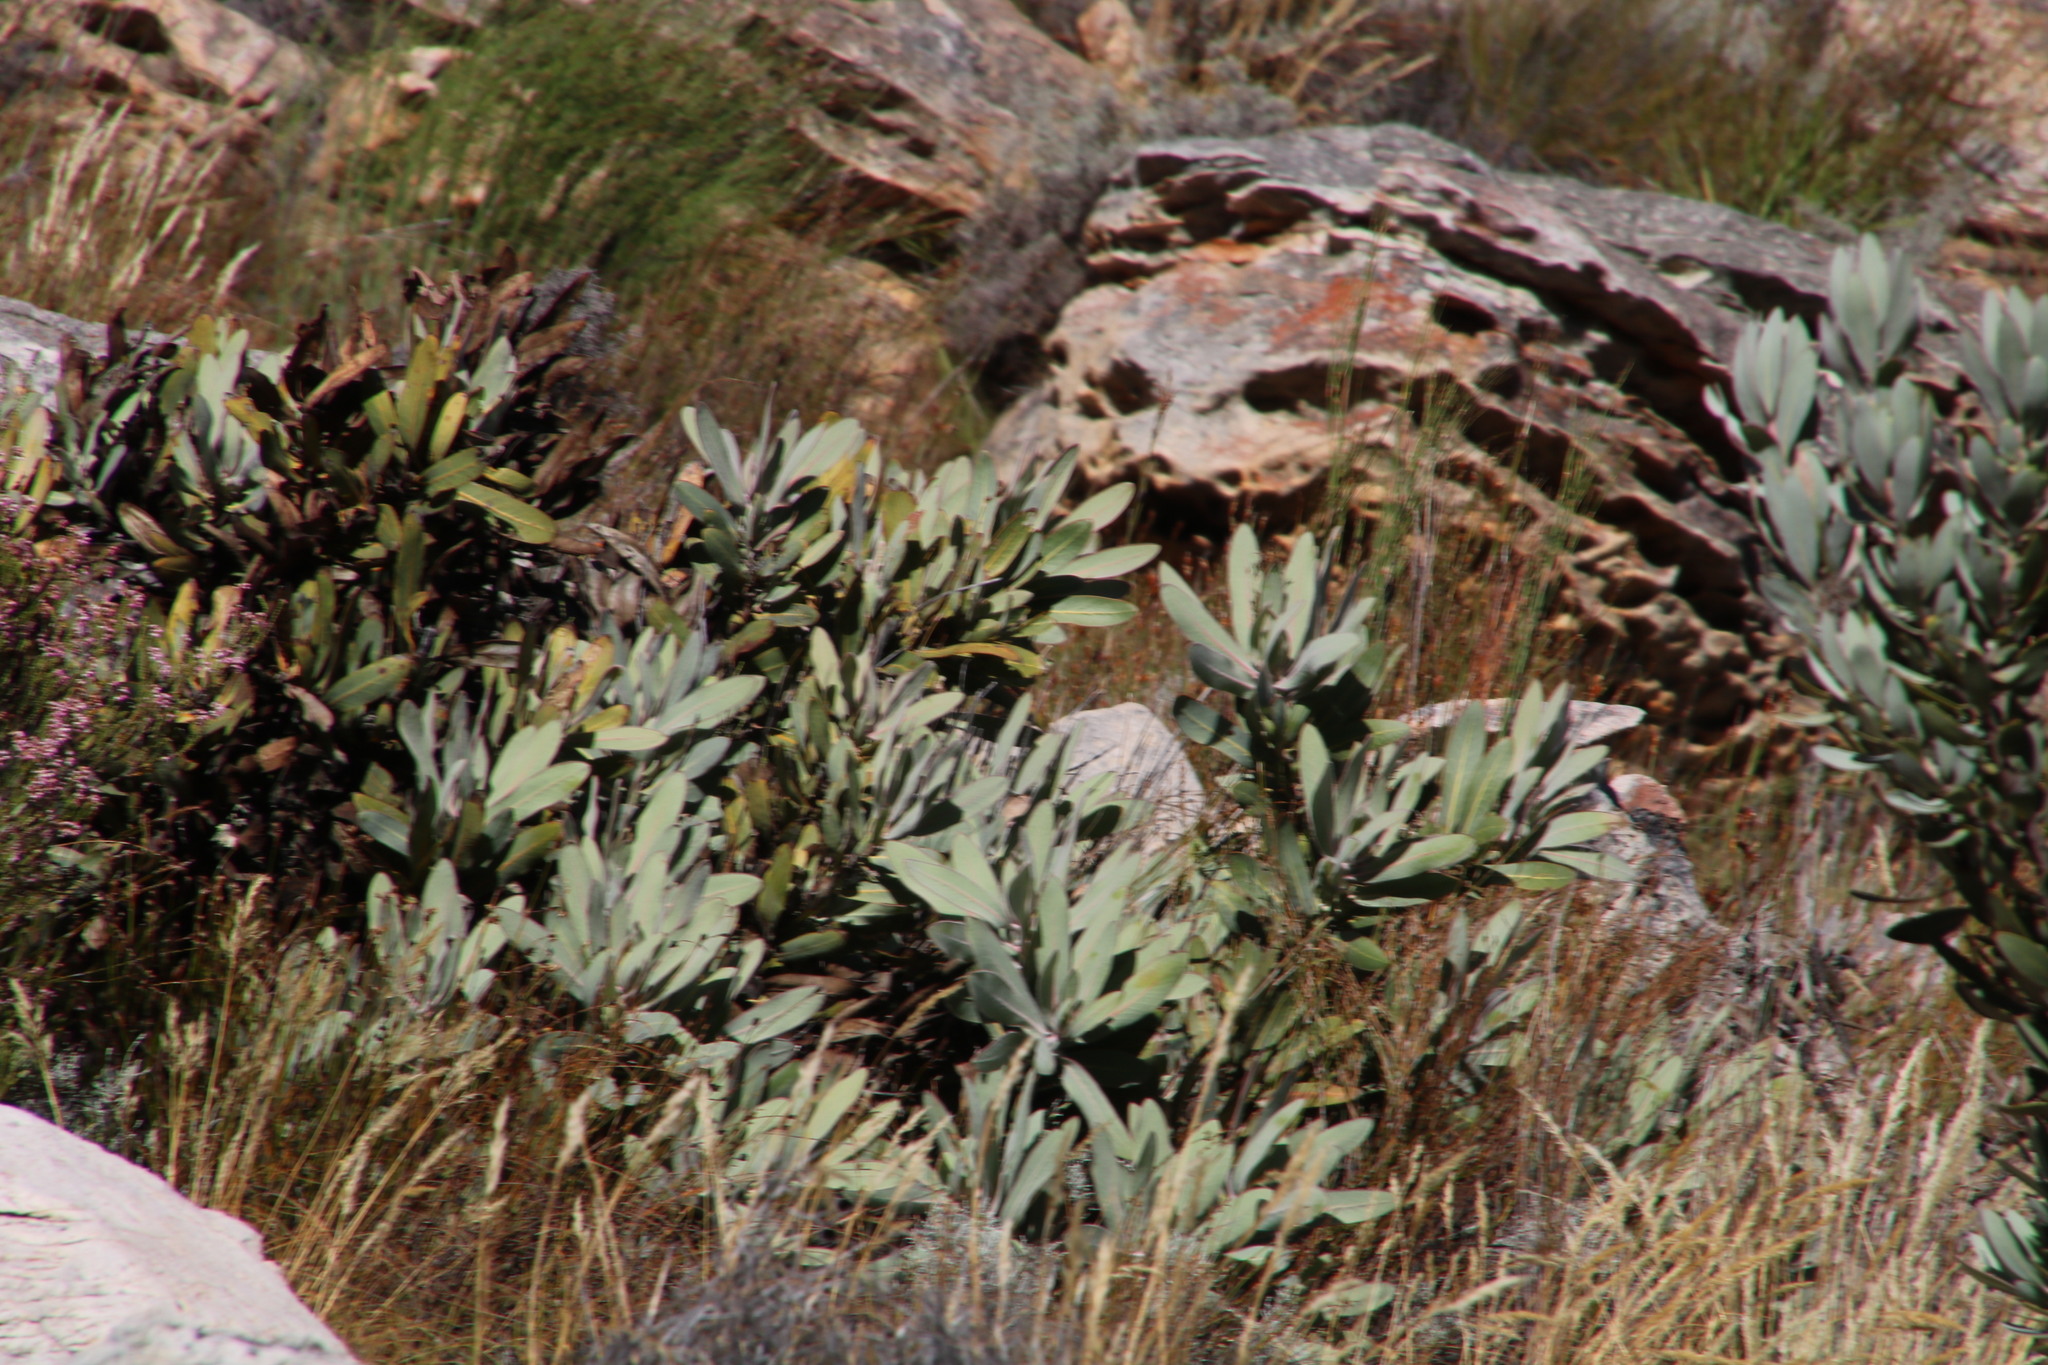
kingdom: Plantae
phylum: Tracheophyta
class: Magnoliopsida
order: Proteales
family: Proteaceae
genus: Protea
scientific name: Protea magnifica
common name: Bearded sugarbush
